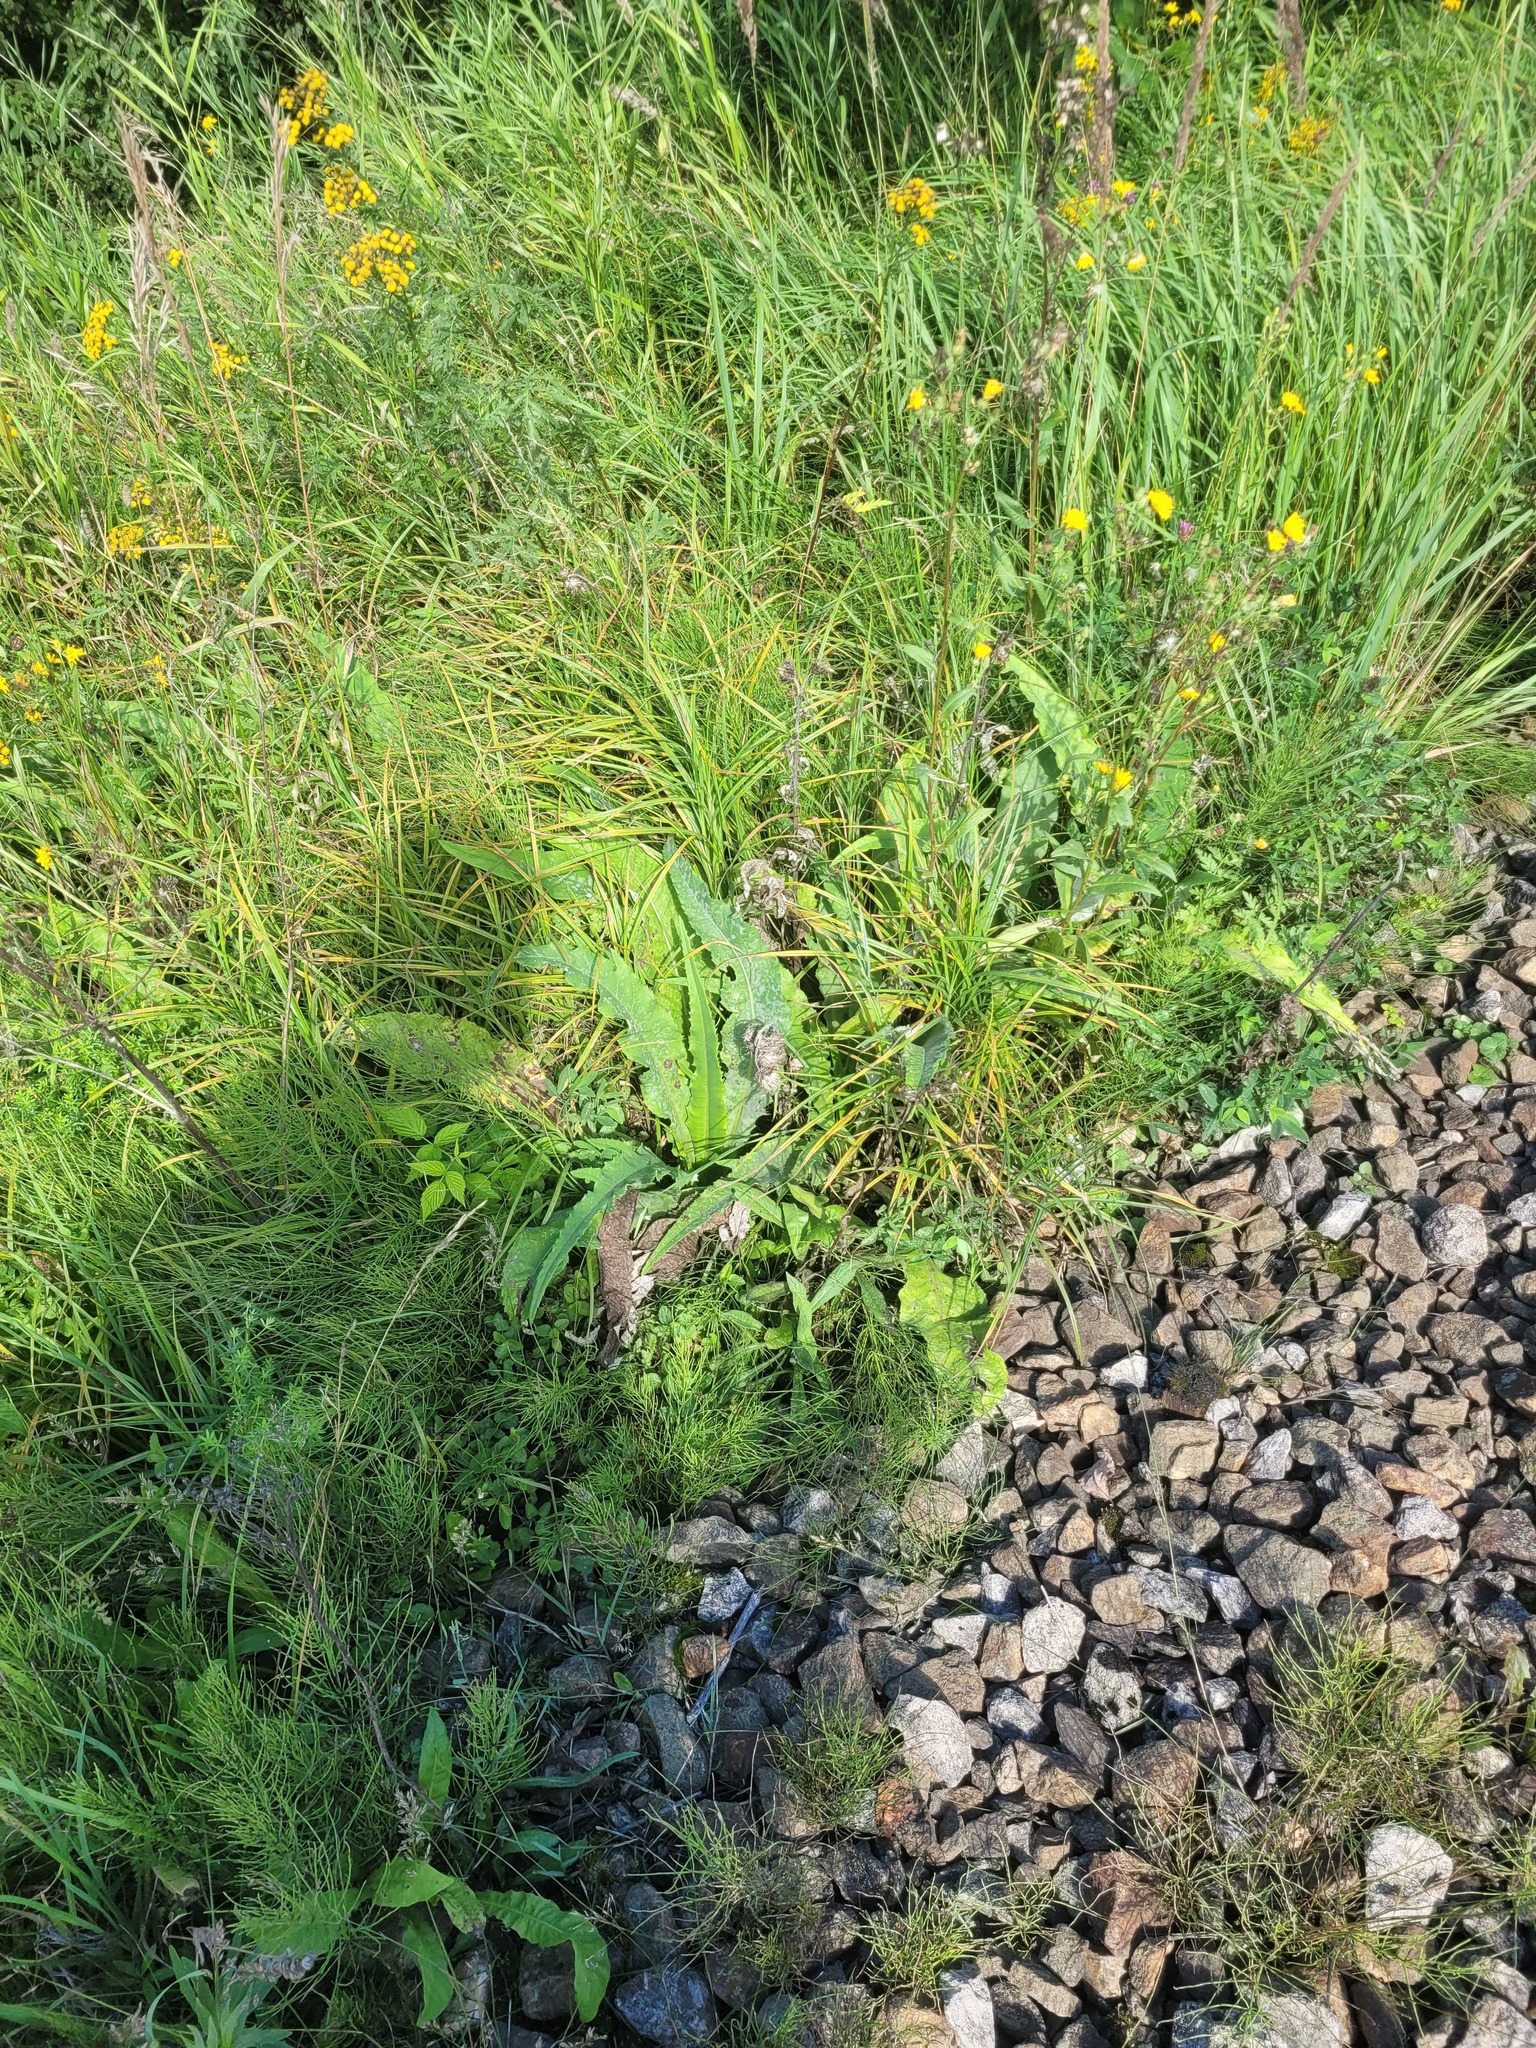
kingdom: Plantae
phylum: Tracheophyta
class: Magnoliopsida
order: Asterales
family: Asteraceae
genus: Cirsium
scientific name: Cirsium heterophyllum
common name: Melancholy thistle
